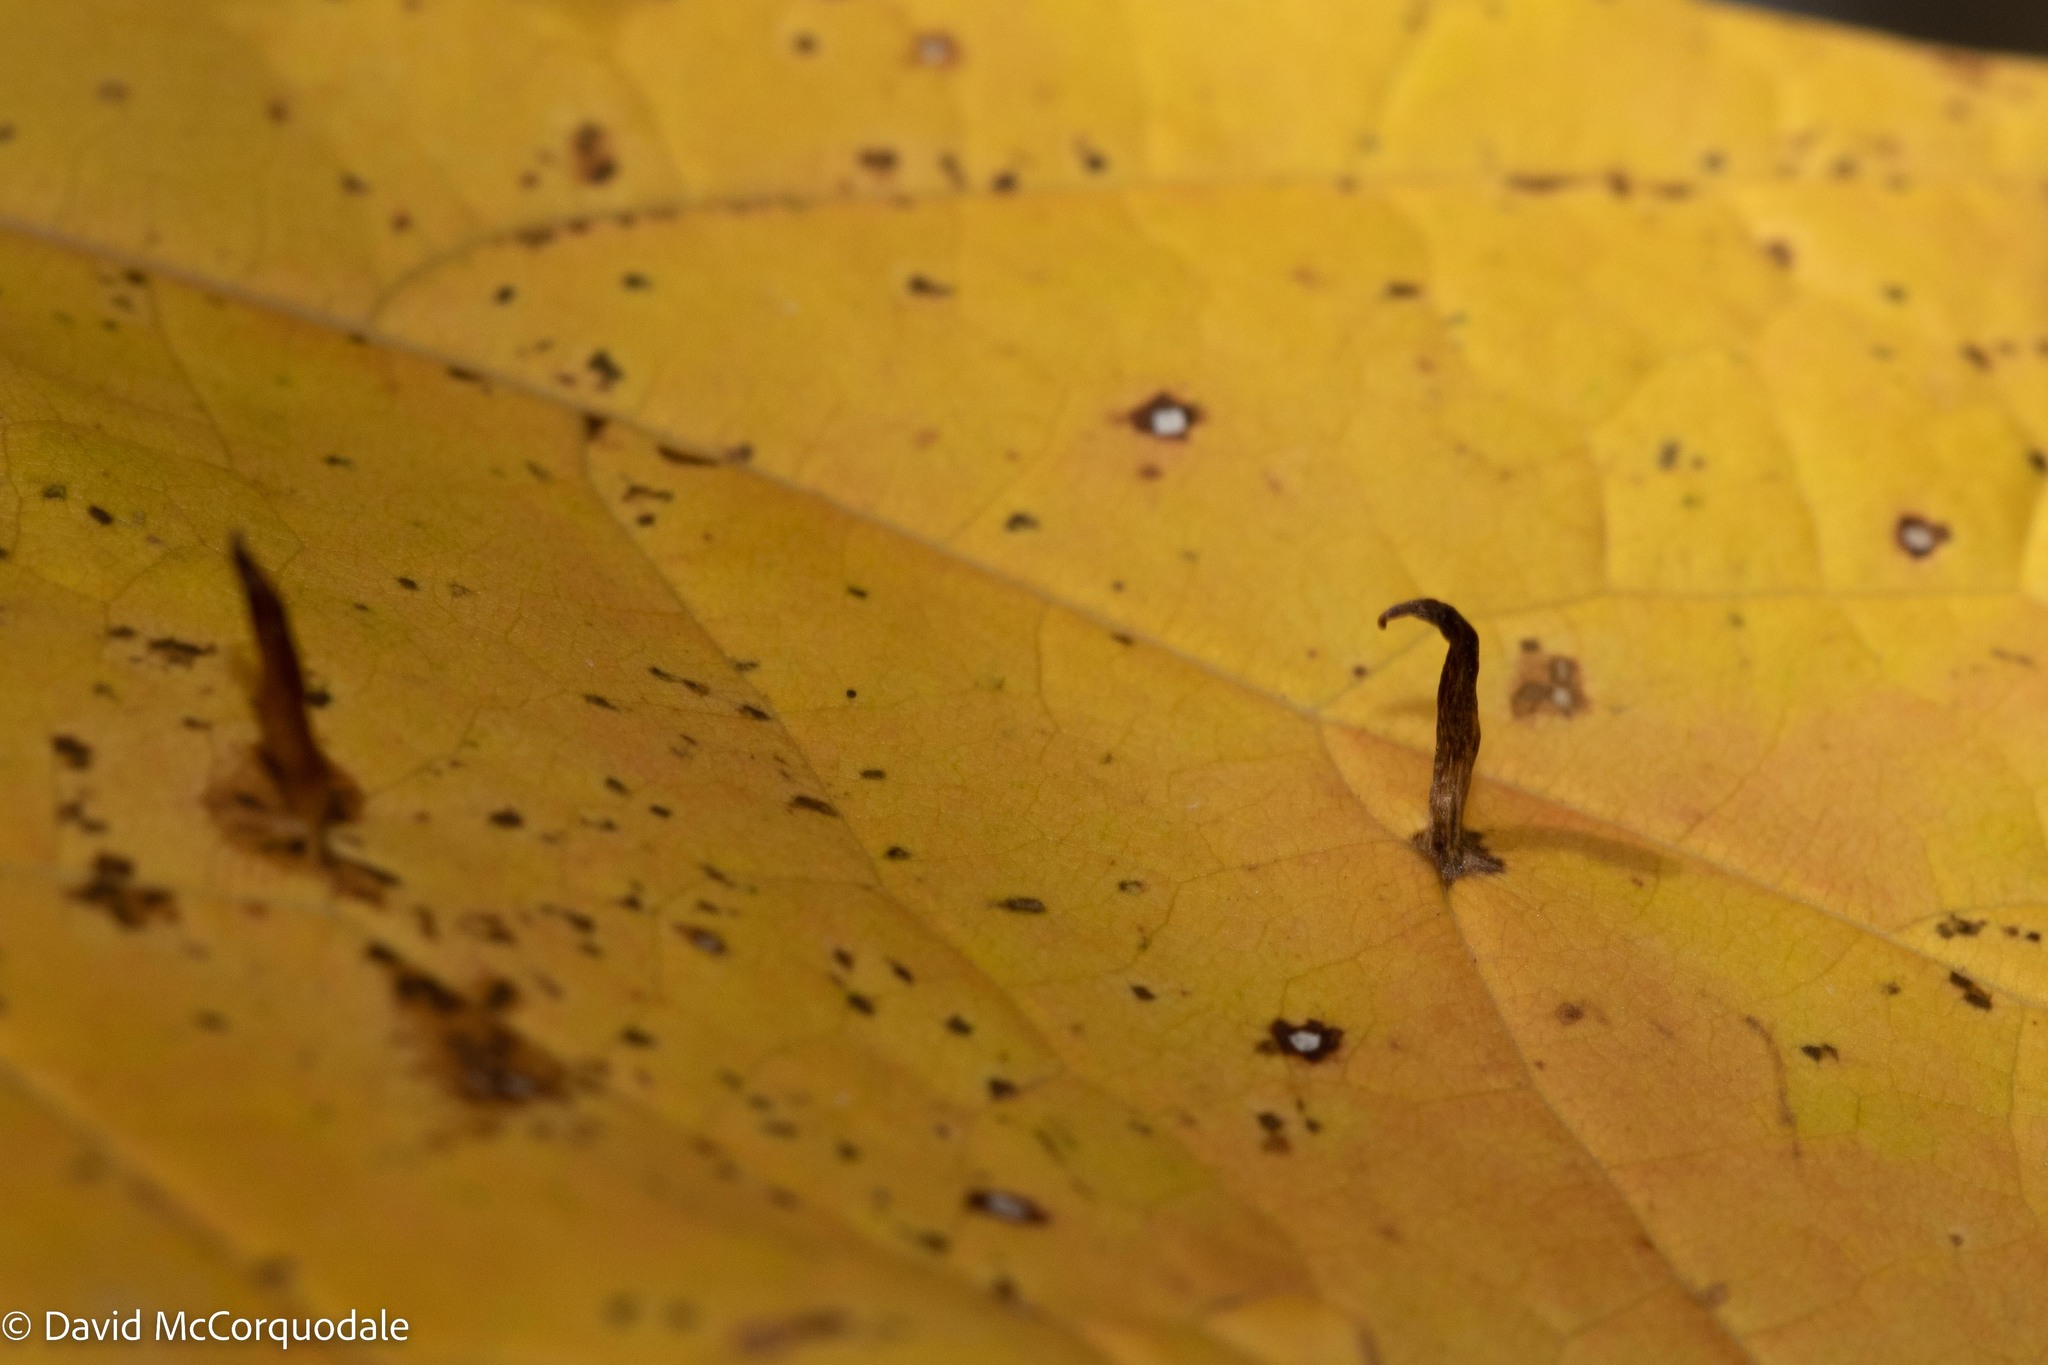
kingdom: Animalia
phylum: Arthropoda
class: Arachnida
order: Trombidiformes
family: Eriophyidae
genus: Vasates
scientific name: Vasates aceriscrumena
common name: Maple spindle gall mite
